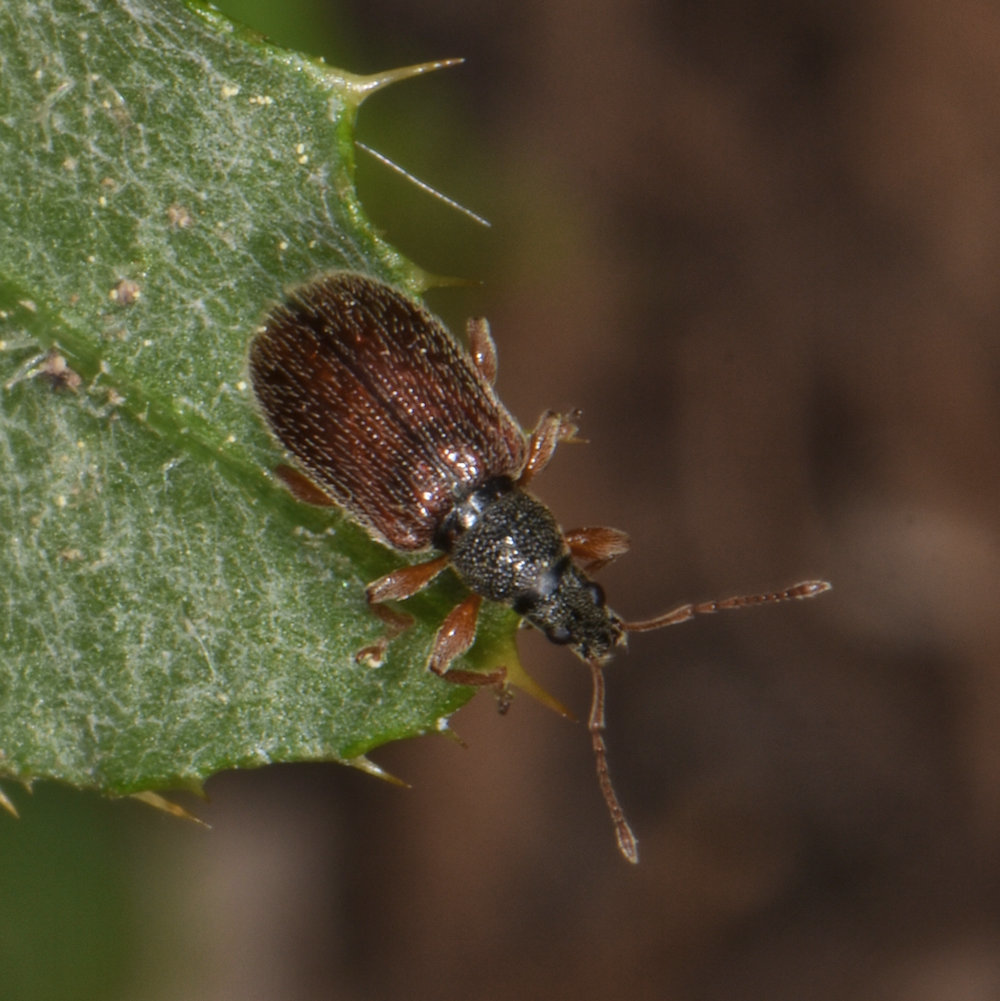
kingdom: Animalia
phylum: Arthropoda
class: Insecta
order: Coleoptera
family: Curculionidae
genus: Phyllobius
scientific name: Phyllobius oblongus
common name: Brown leaf weevil
